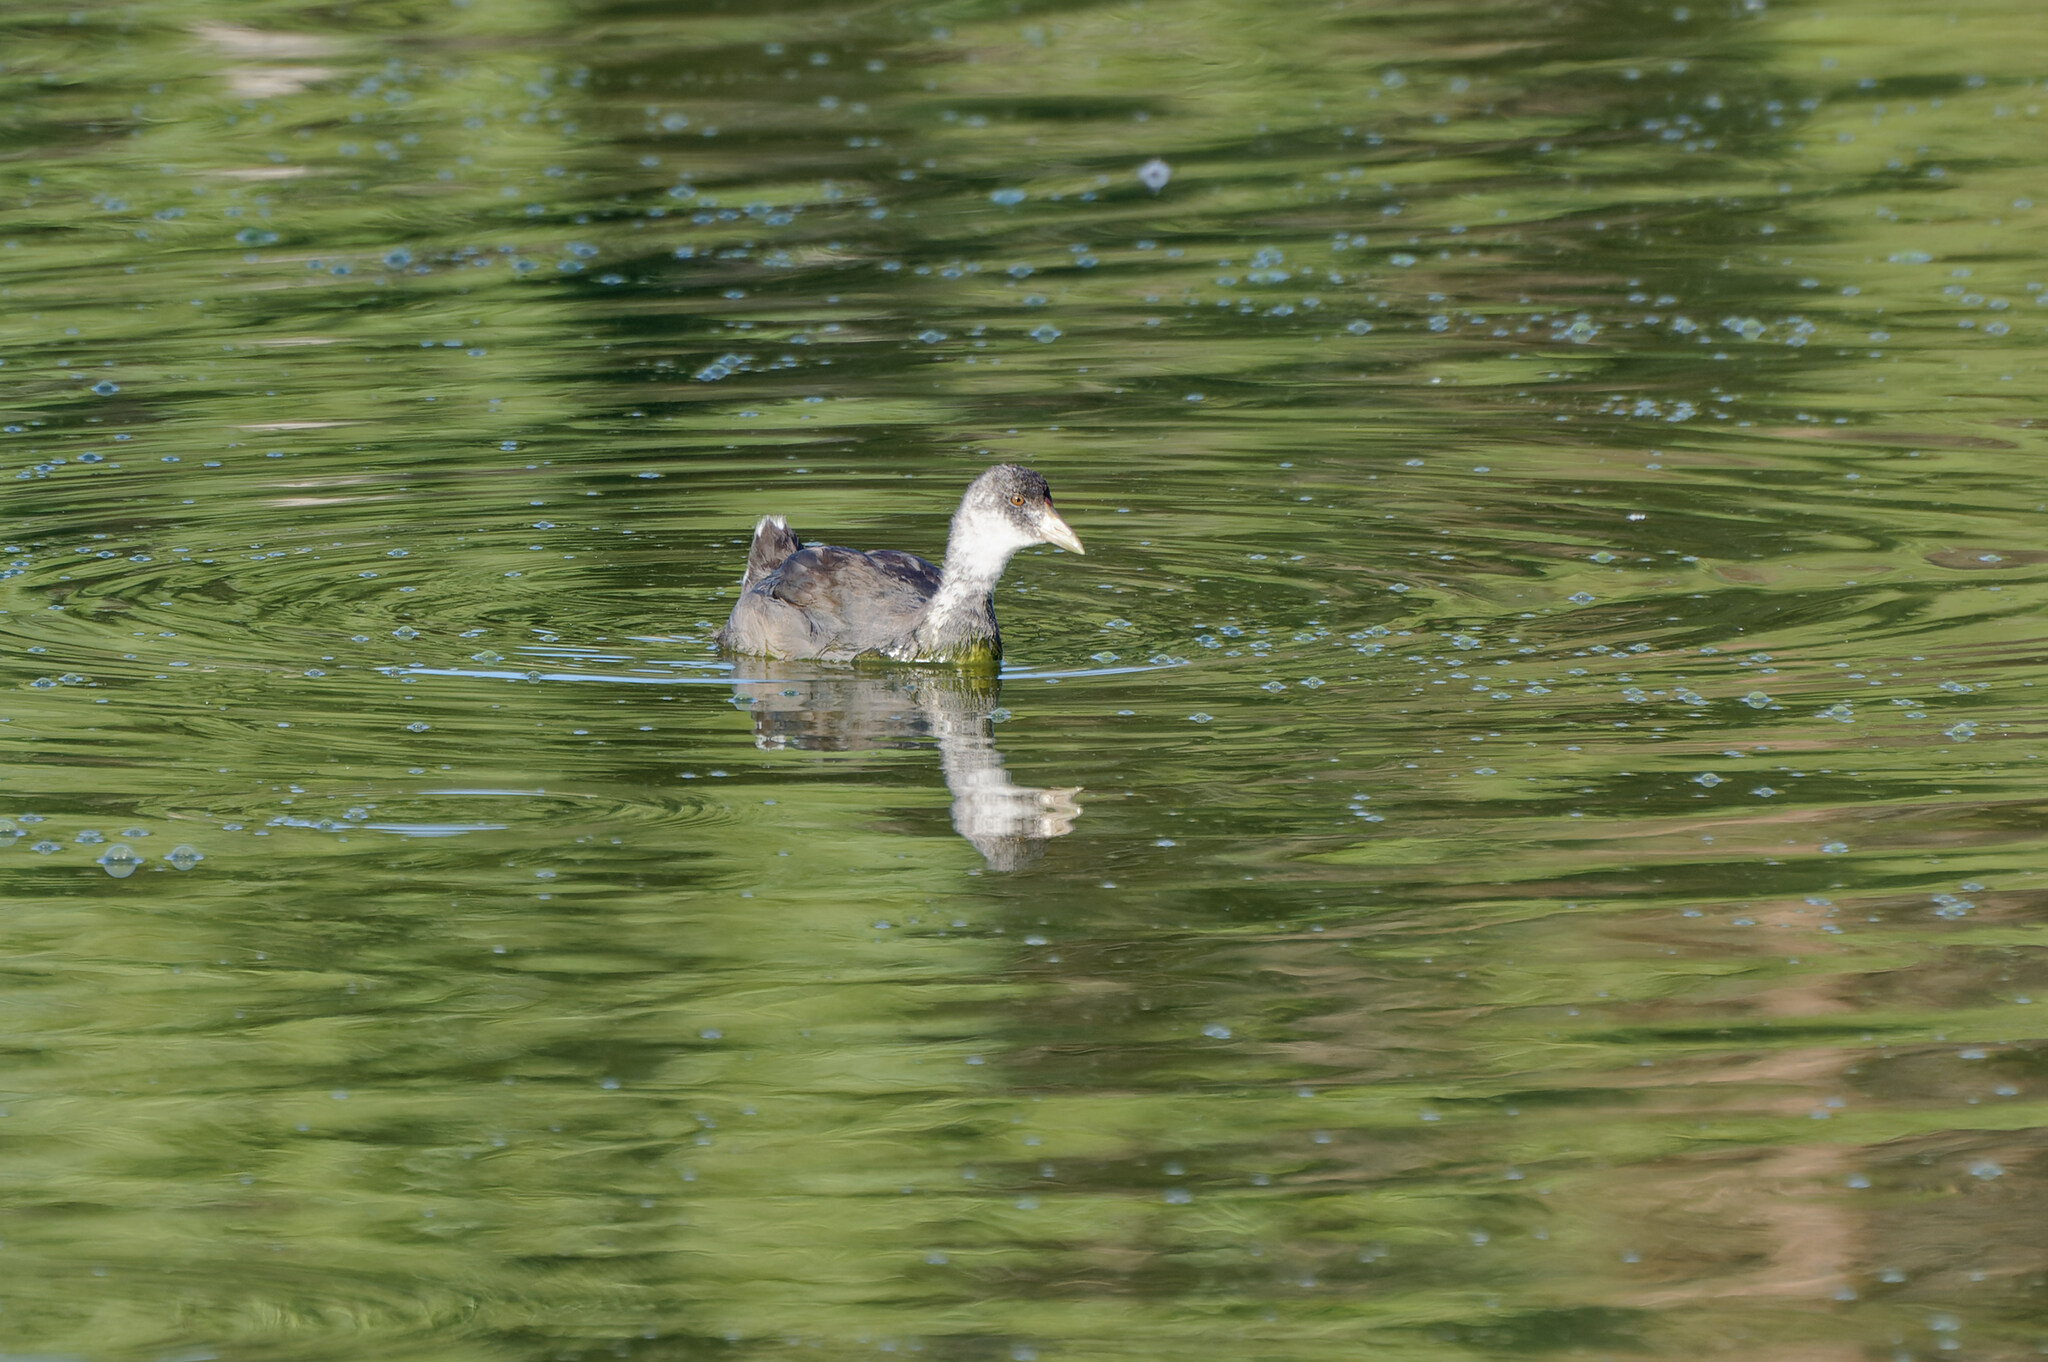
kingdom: Animalia
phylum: Chordata
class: Aves
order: Gruiformes
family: Rallidae
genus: Fulica
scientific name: Fulica americana
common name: American coot
